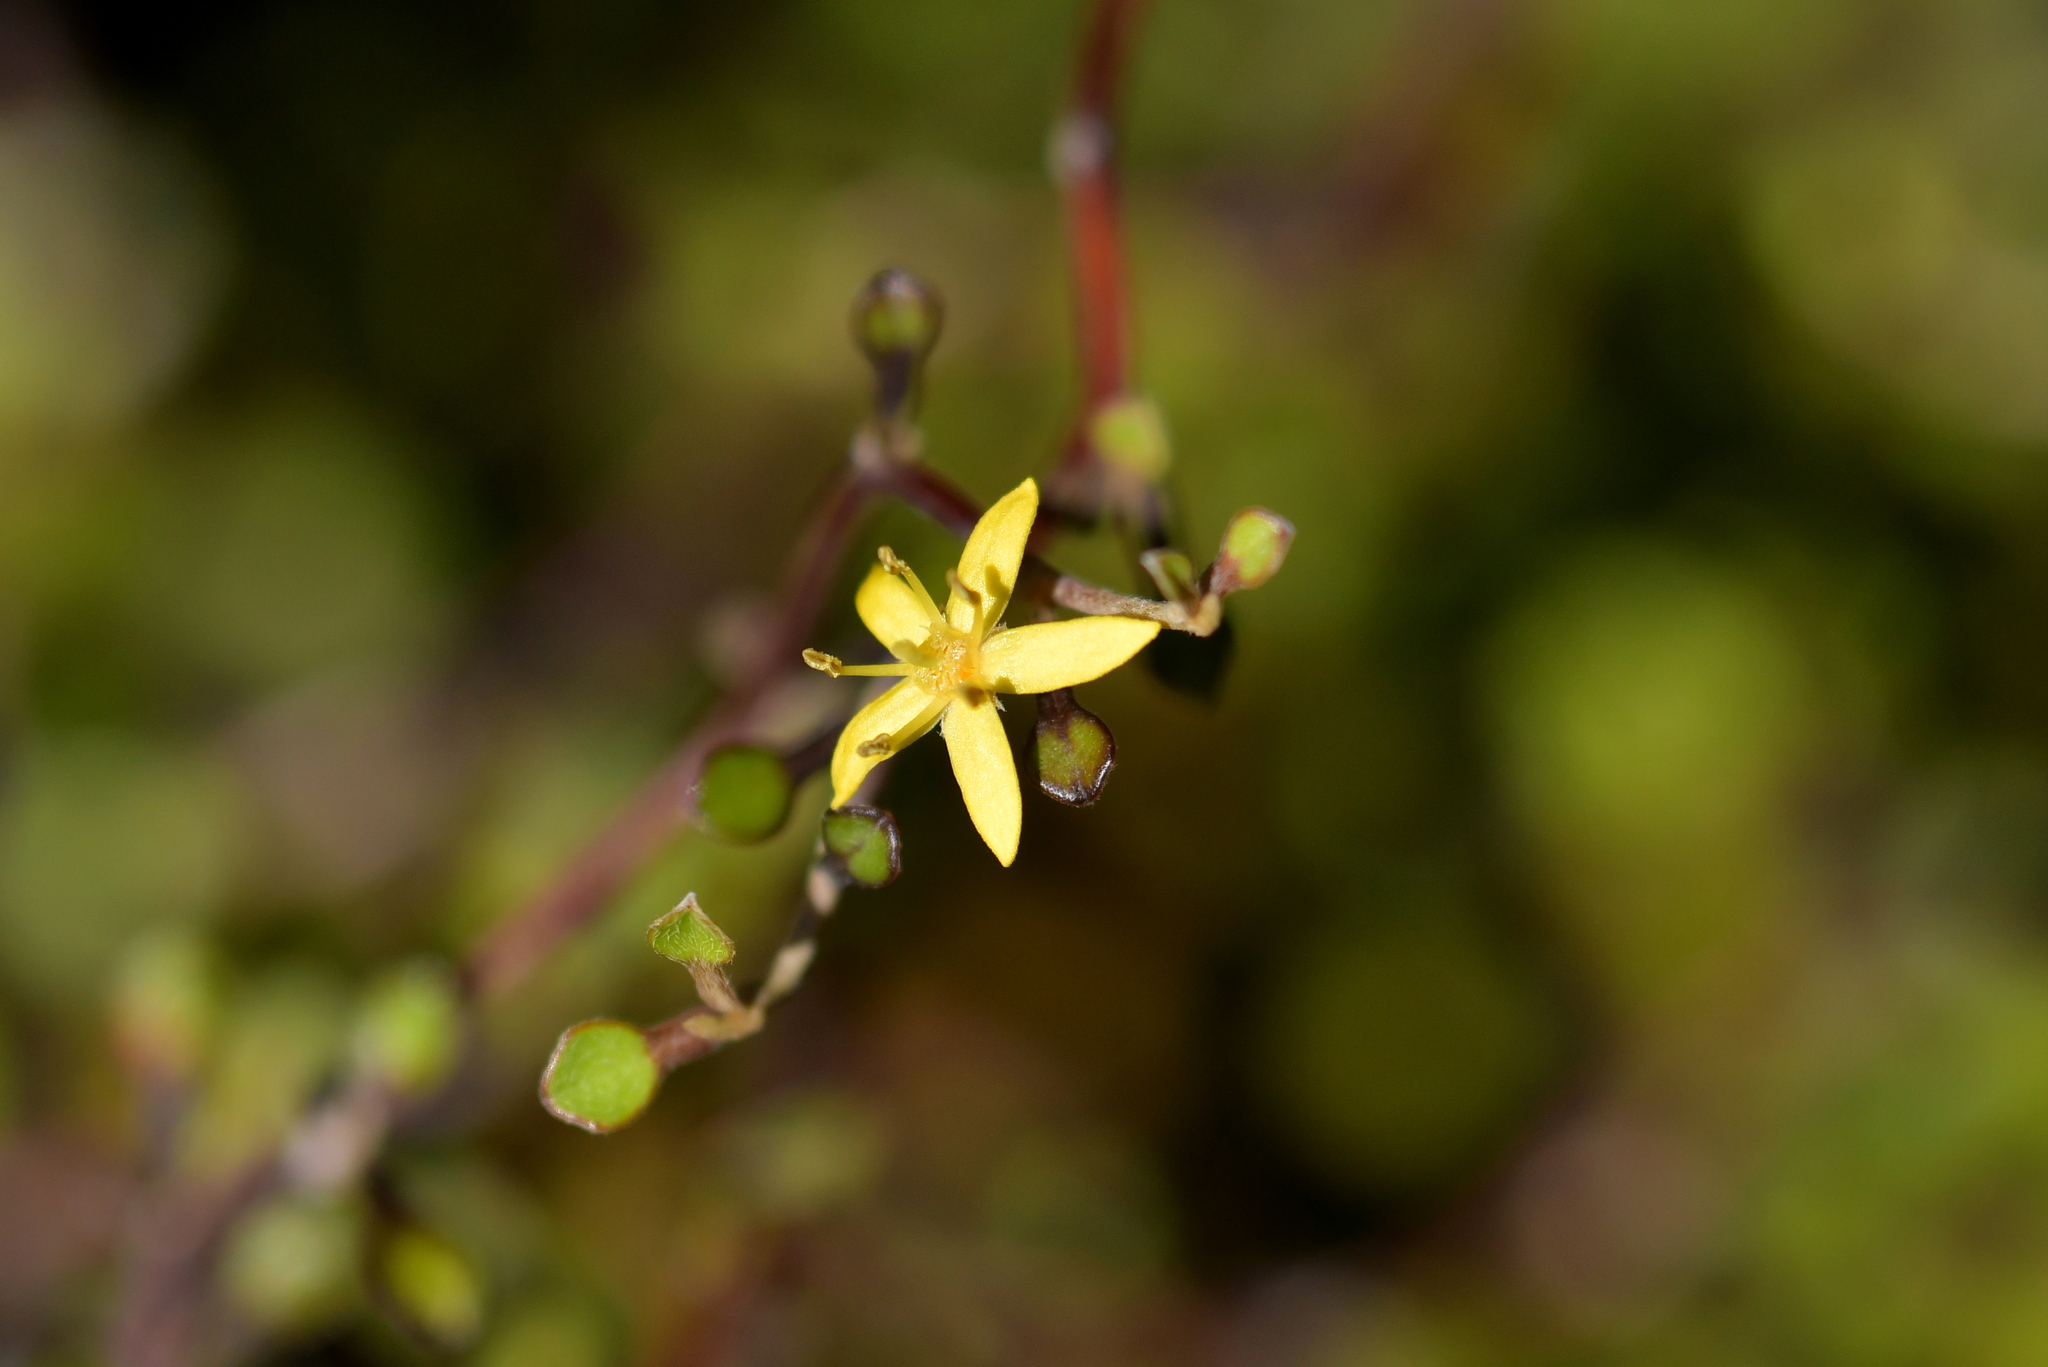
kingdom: Plantae
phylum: Tracheophyta
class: Magnoliopsida
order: Asterales
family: Argophyllaceae
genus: Corokia
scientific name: Corokia cotoneaster
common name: Wire nettingbush
